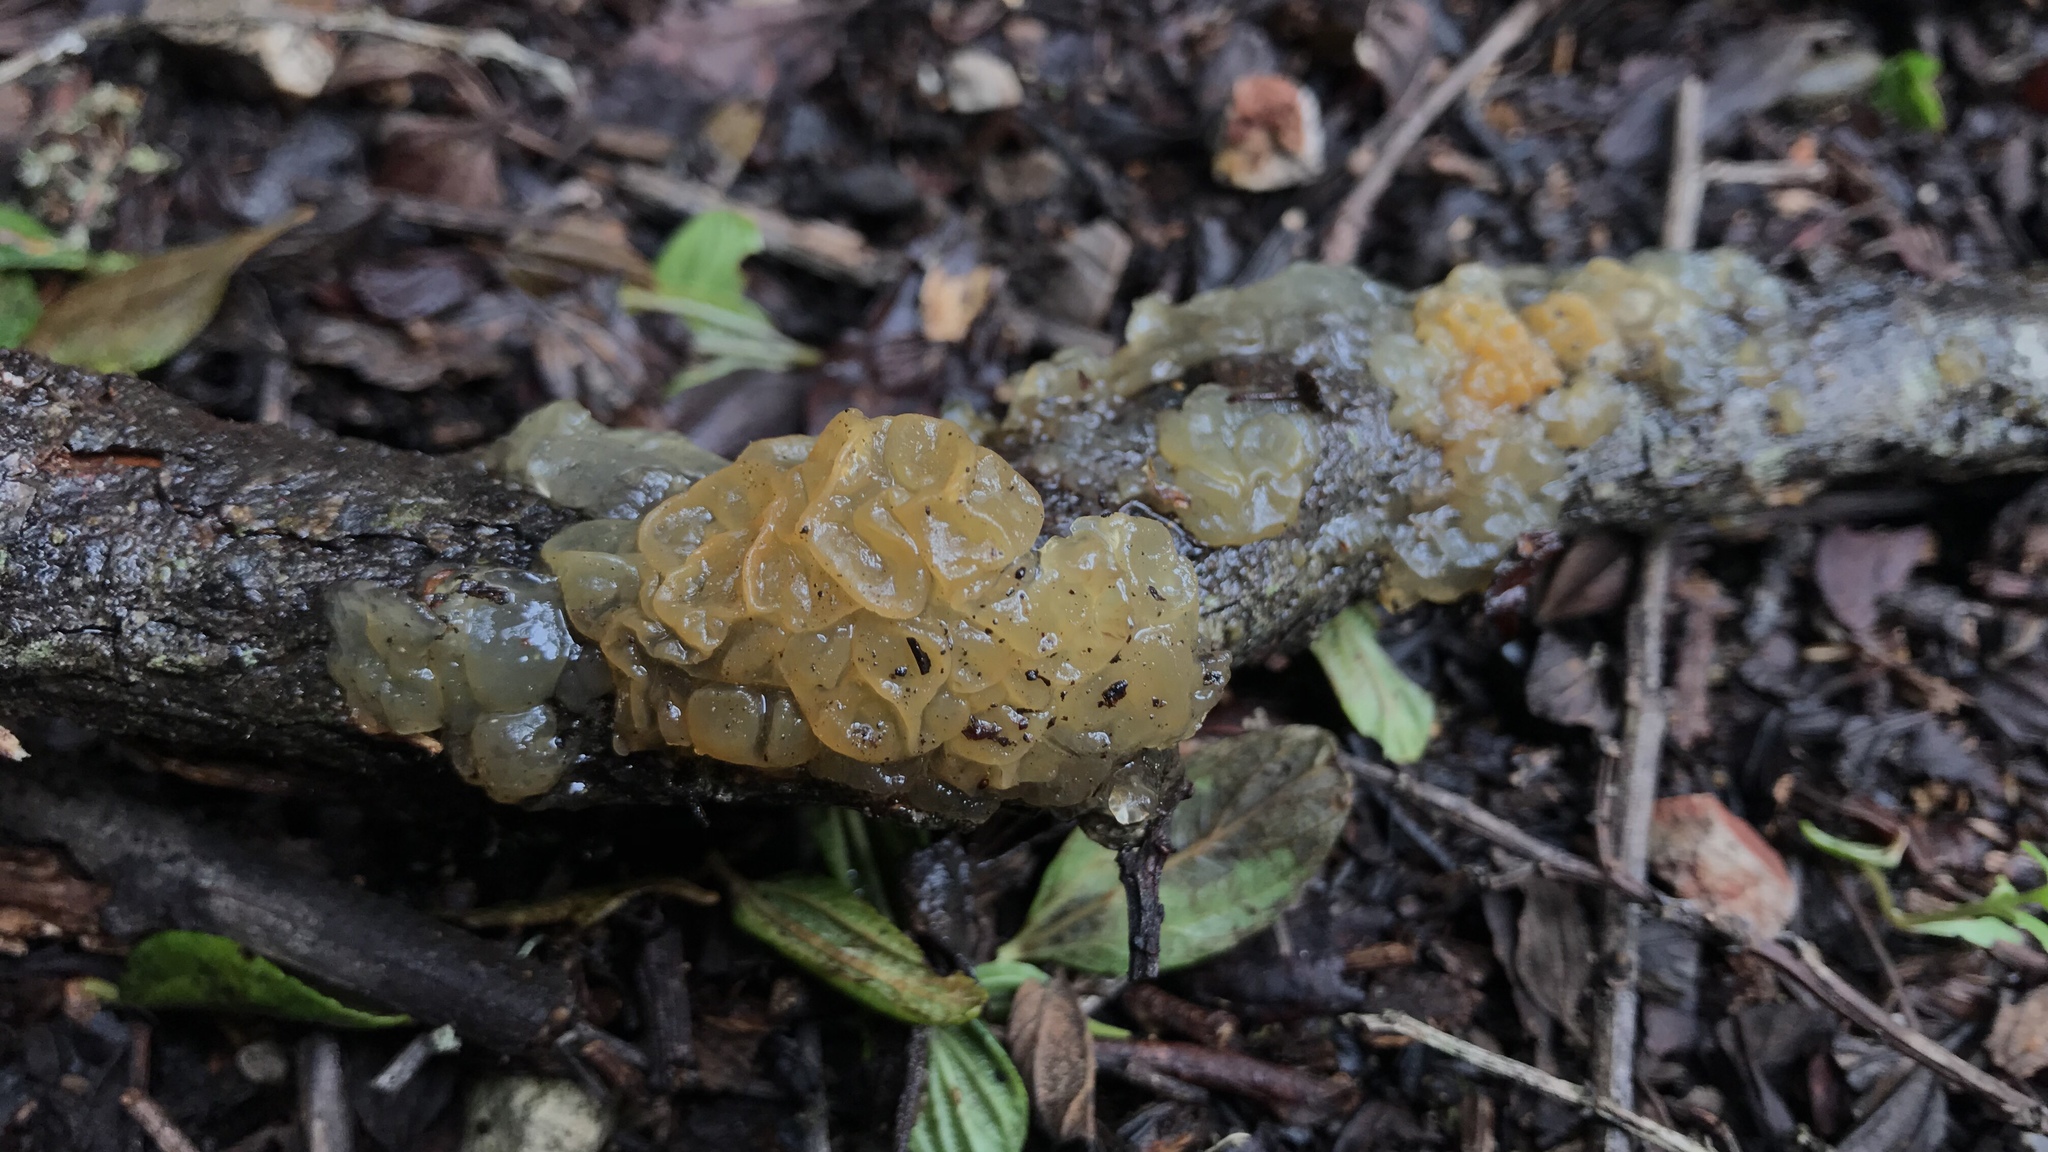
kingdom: Fungi
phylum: Basidiomycota
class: Tremellomycetes
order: Tremellales
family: Tremellaceae
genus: Tremella
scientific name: Tremella mesenterica
